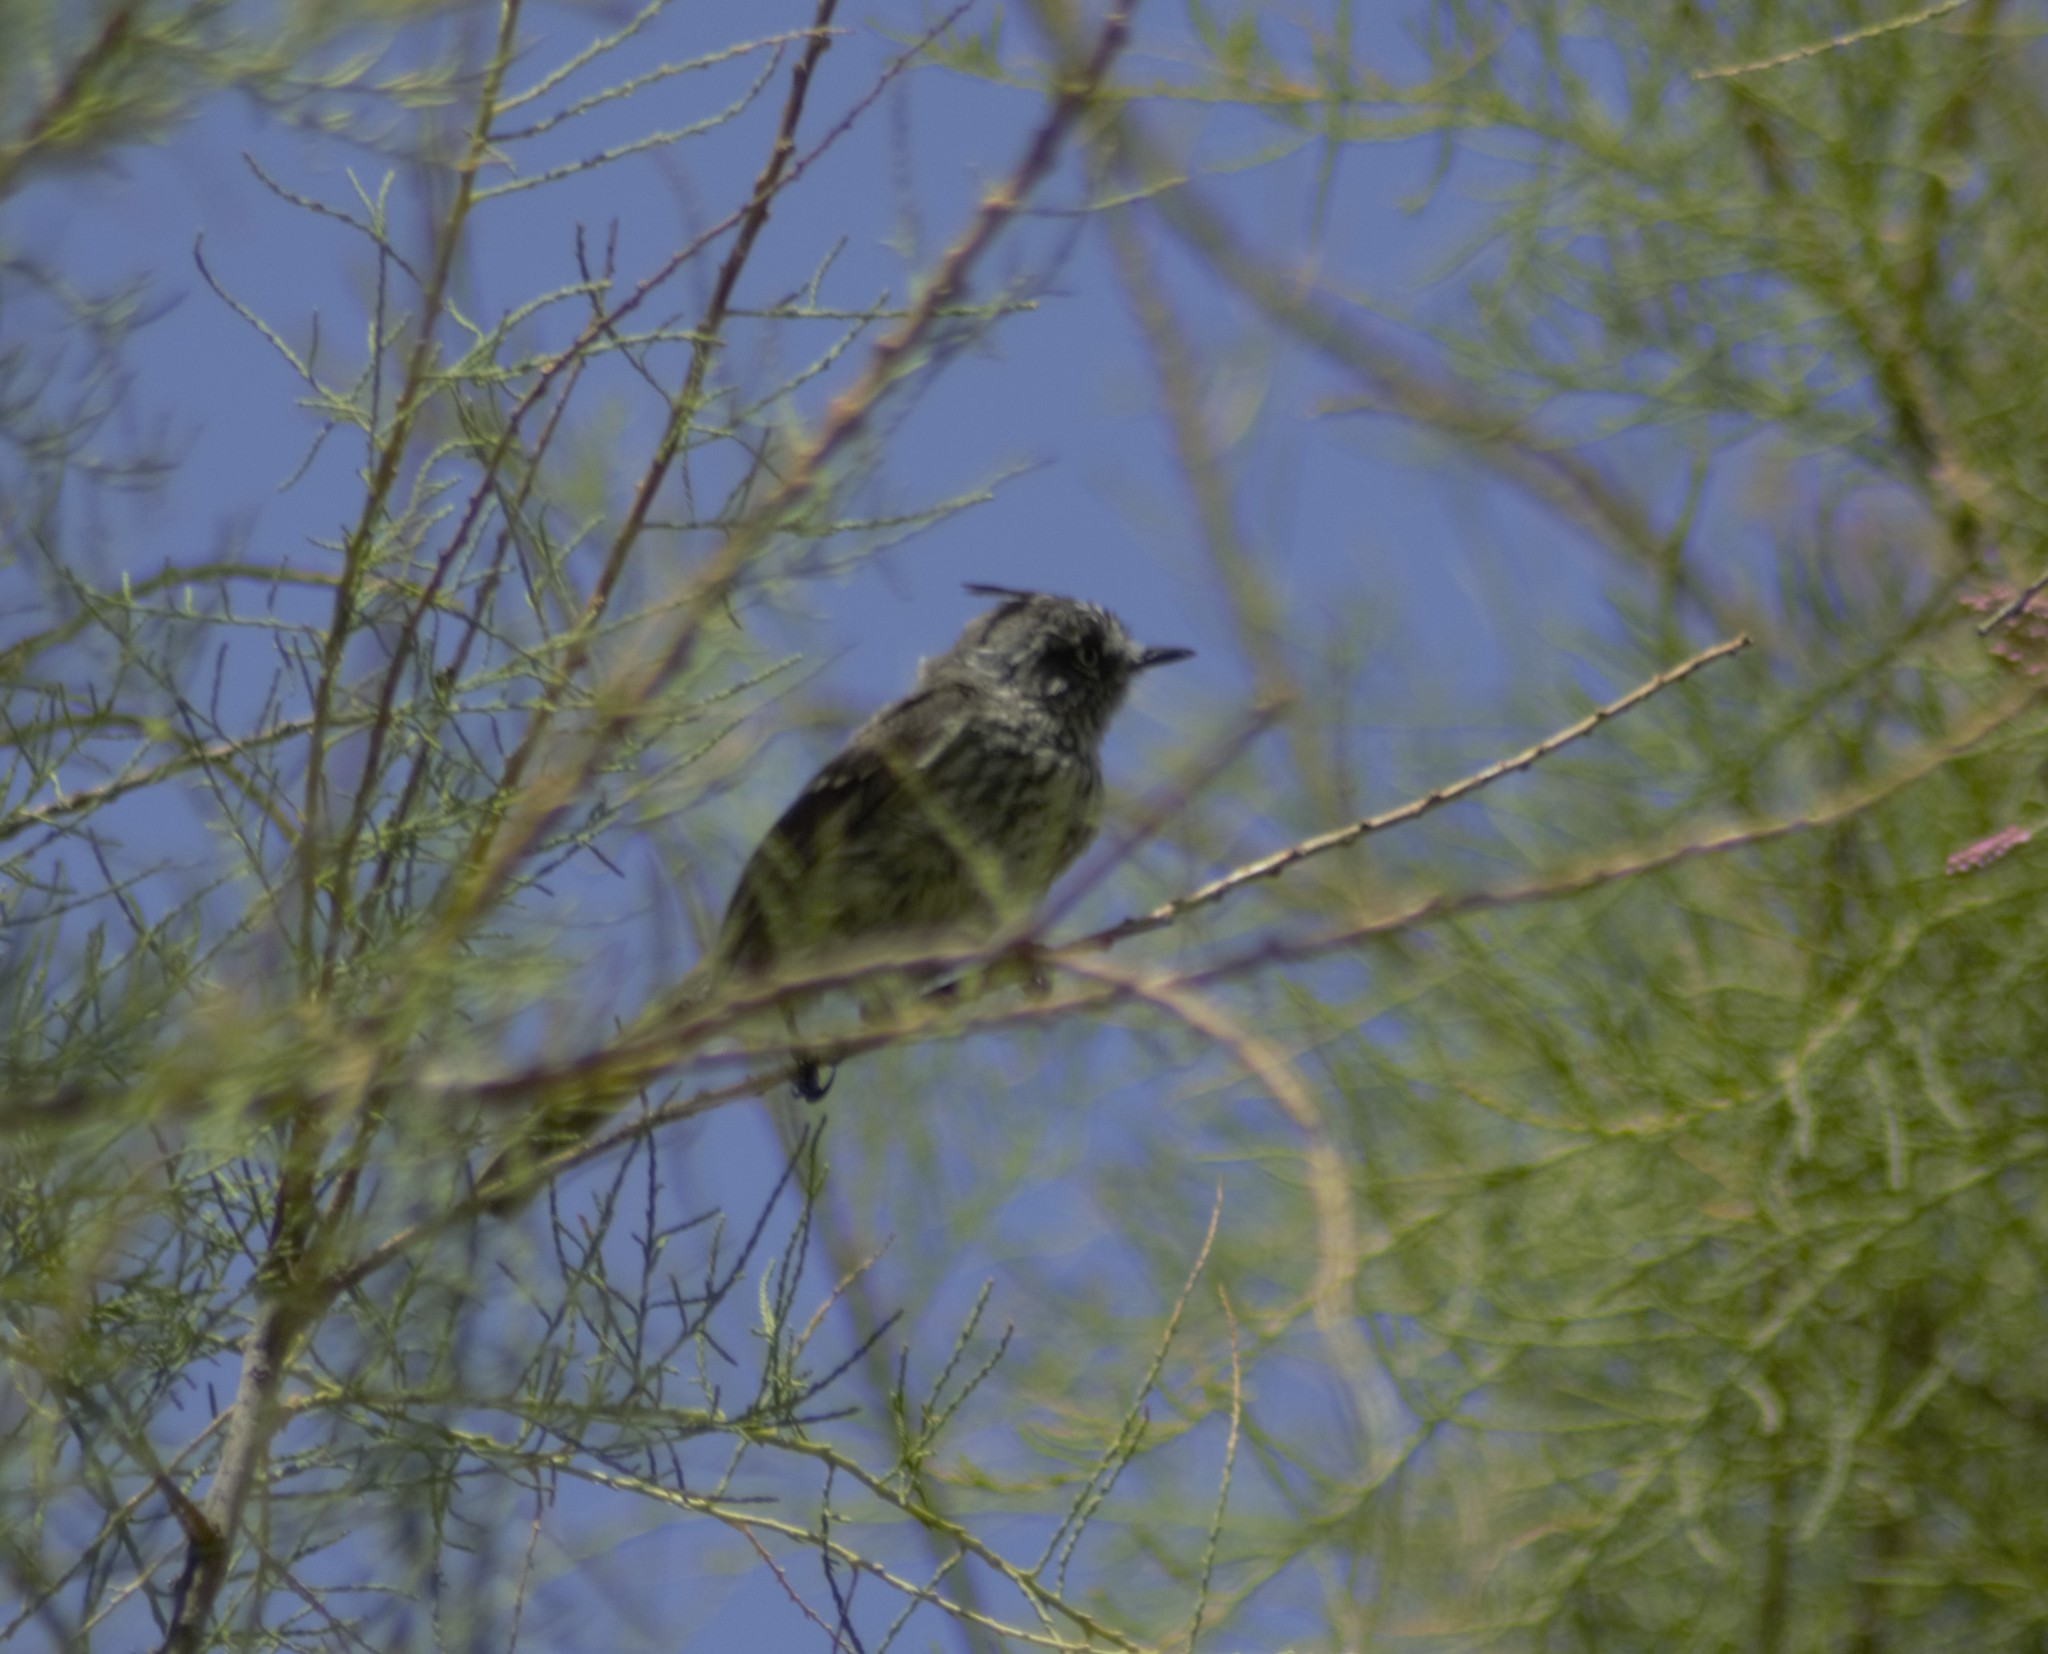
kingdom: Animalia
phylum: Chordata
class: Aves
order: Passeriformes
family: Tyrannidae
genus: Anairetes
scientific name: Anairetes parulus
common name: Tufted tit-tyrant
